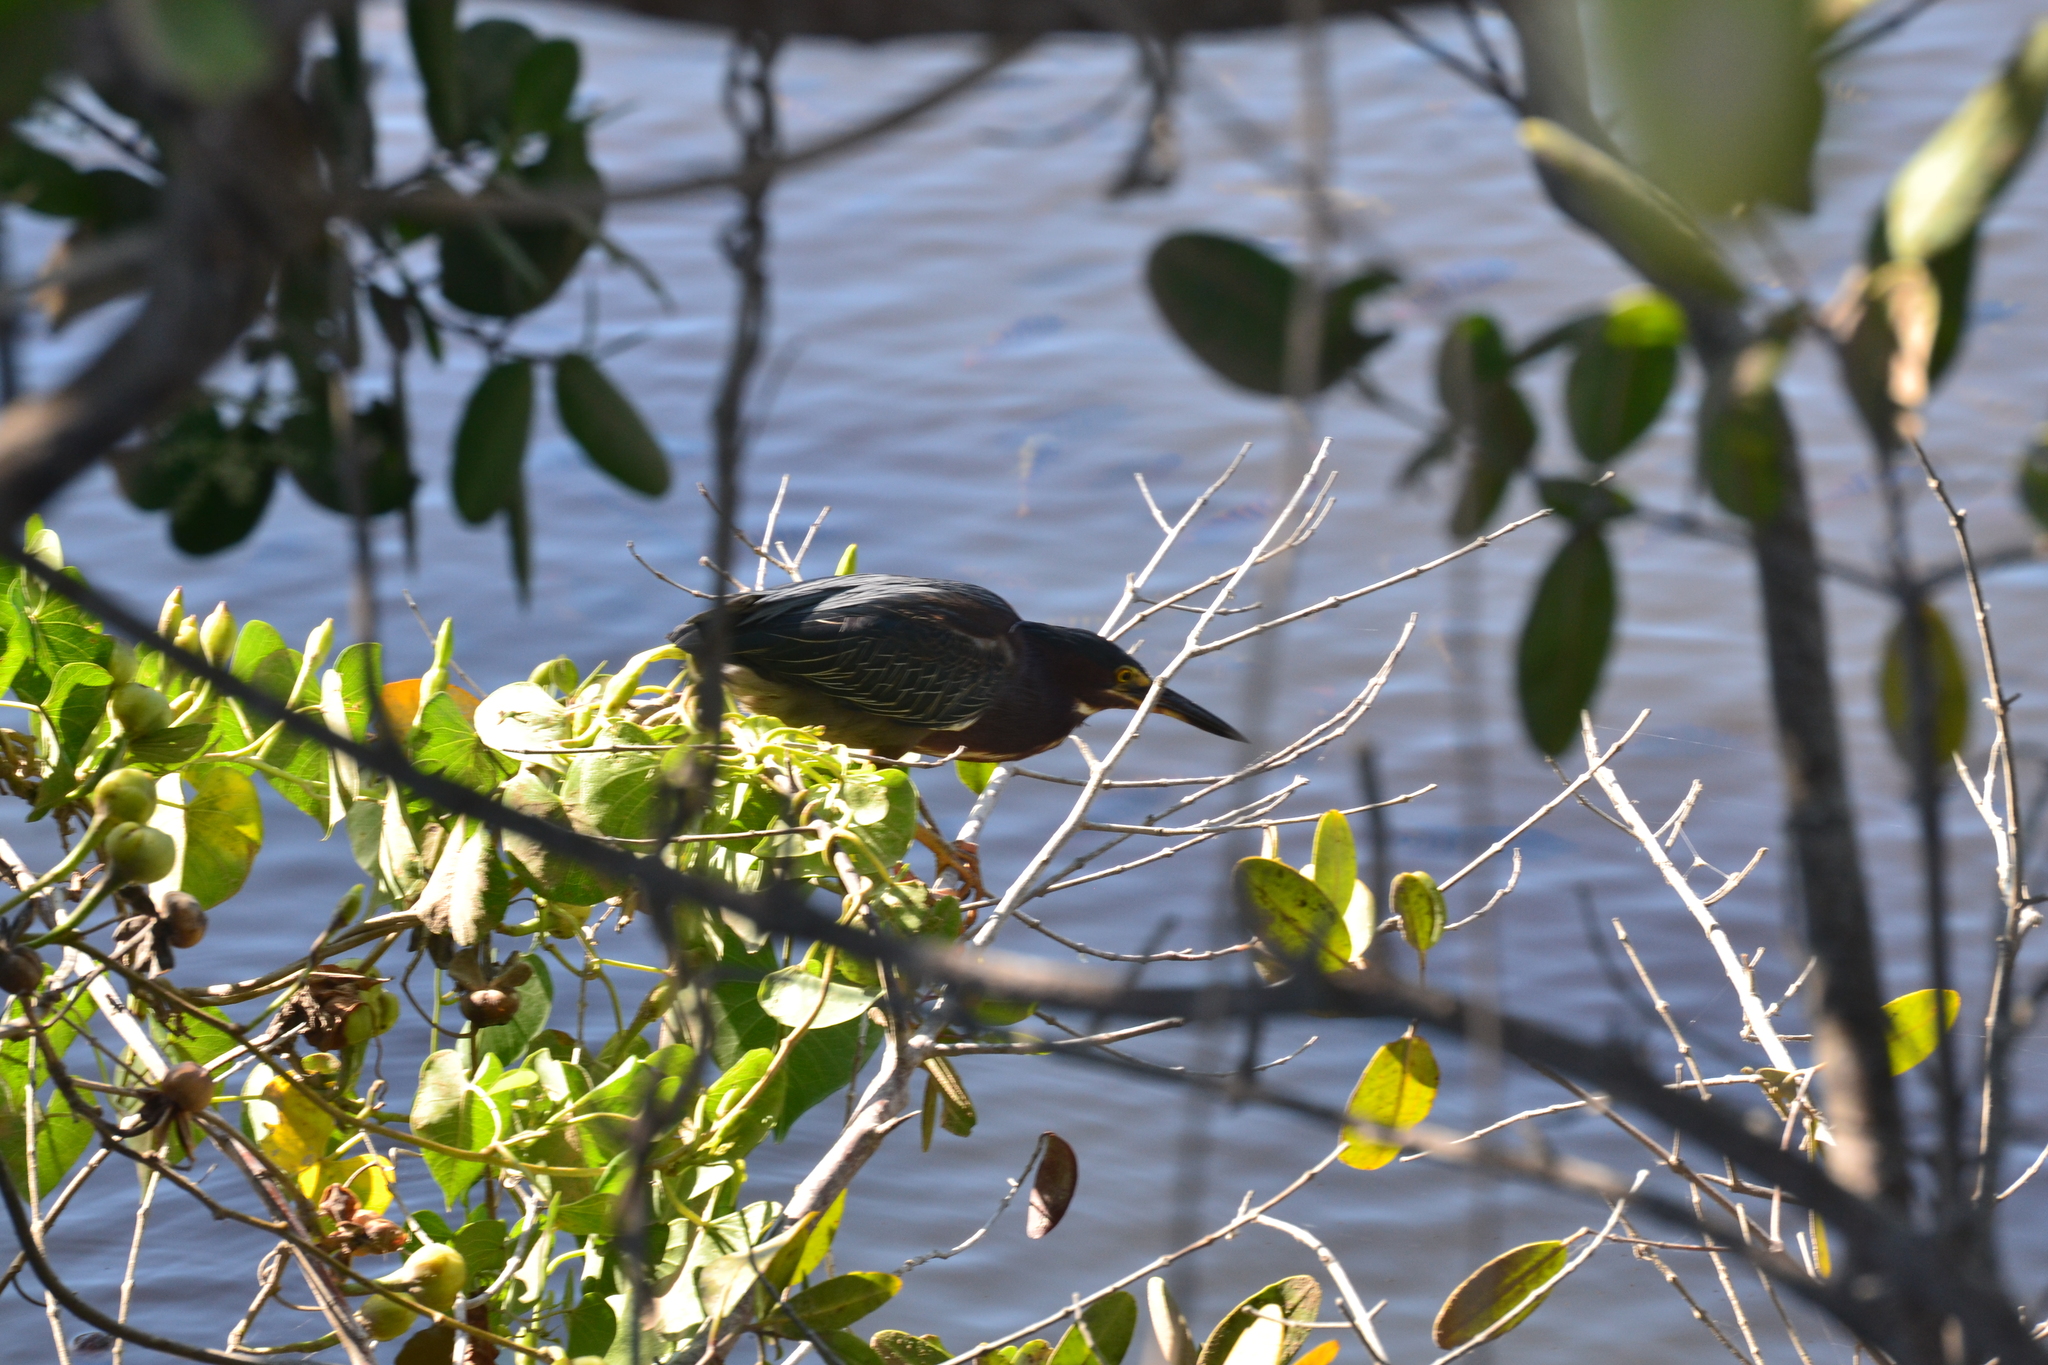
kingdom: Animalia
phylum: Chordata
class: Aves
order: Pelecaniformes
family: Ardeidae
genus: Butorides
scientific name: Butorides virescens
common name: Green heron
